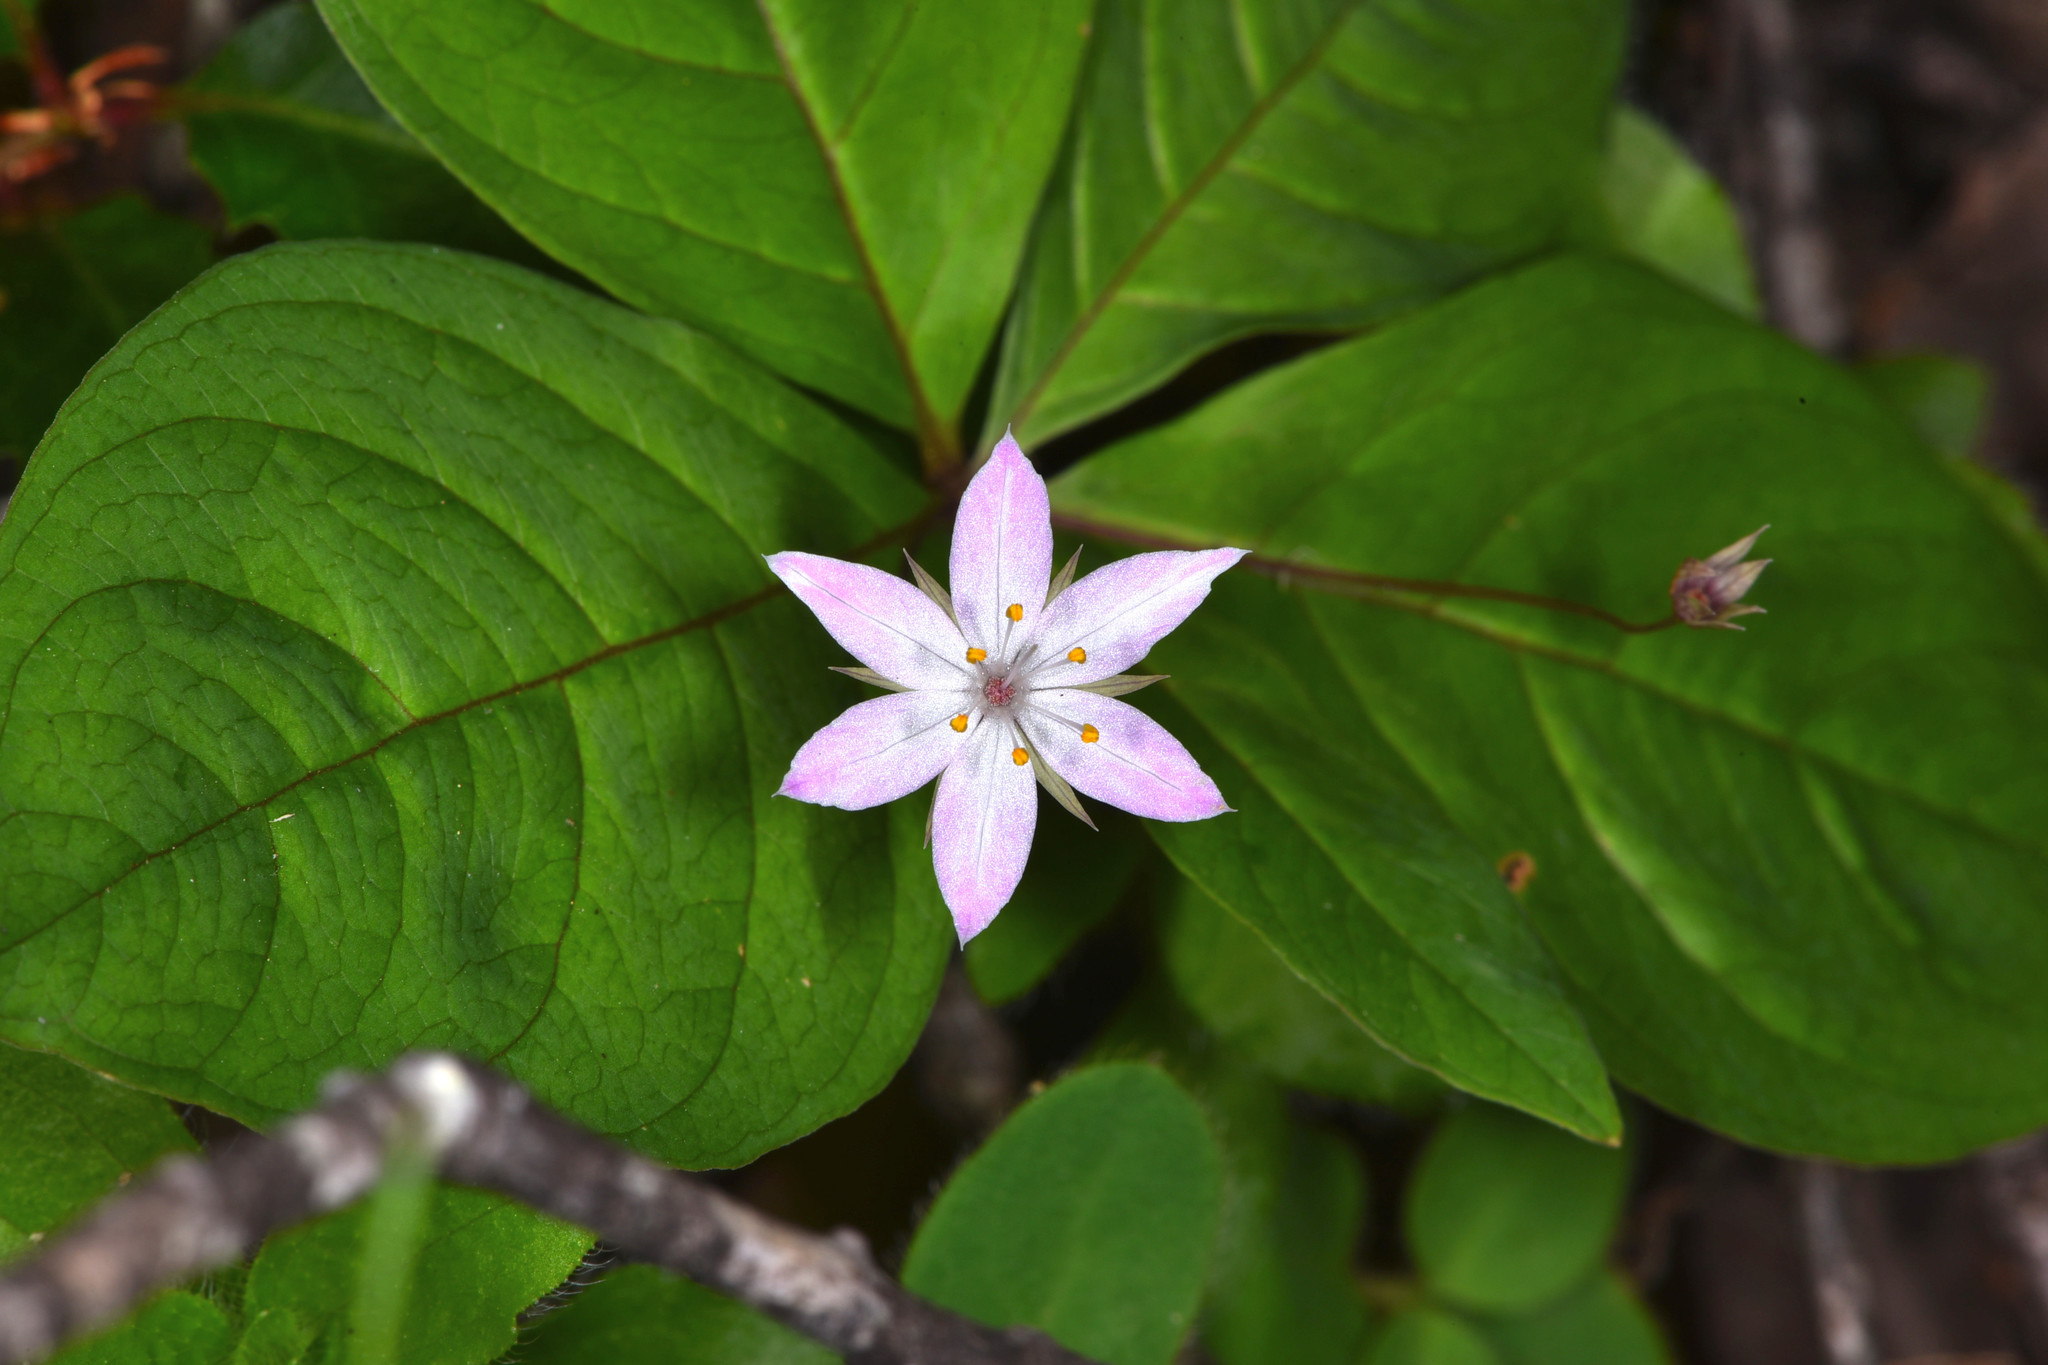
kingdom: Plantae
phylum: Tracheophyta
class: Magnoliopsida
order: Ericales
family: Primulaceae
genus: Lysimachia
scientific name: Lysimachia latifolia
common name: Pacific starflower
